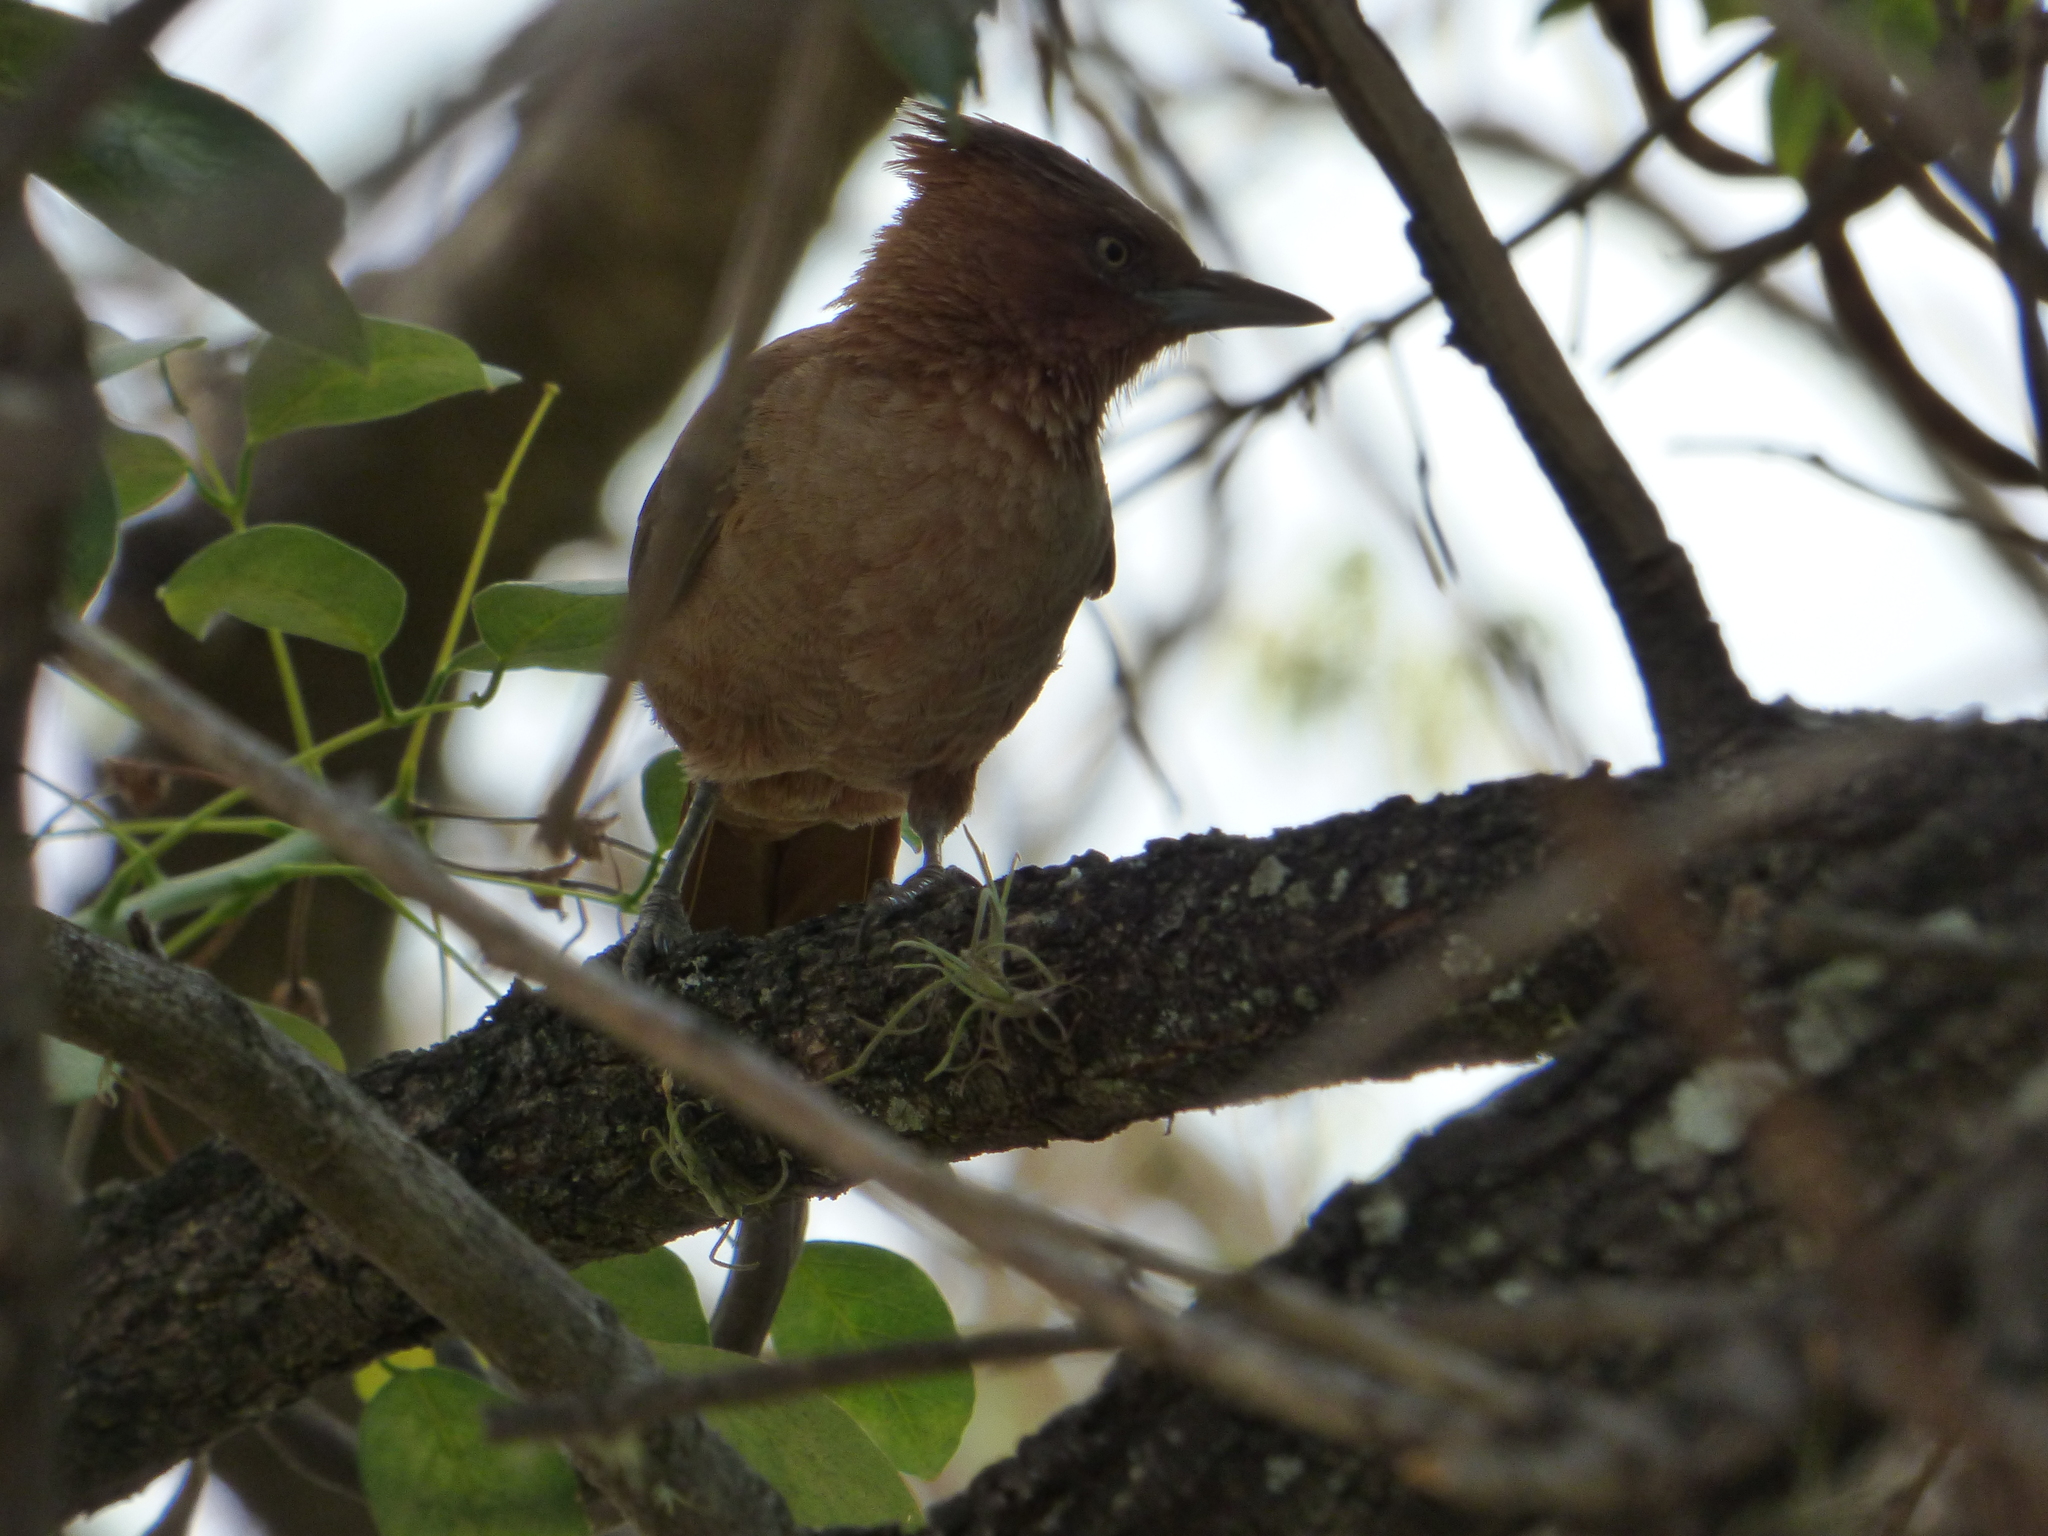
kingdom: Animalia
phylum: Chordata
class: Aves
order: Passeriformes
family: Furnariidae
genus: Pseudoseisura
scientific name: Pseudoseisura lophotes
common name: Brown cacholote
